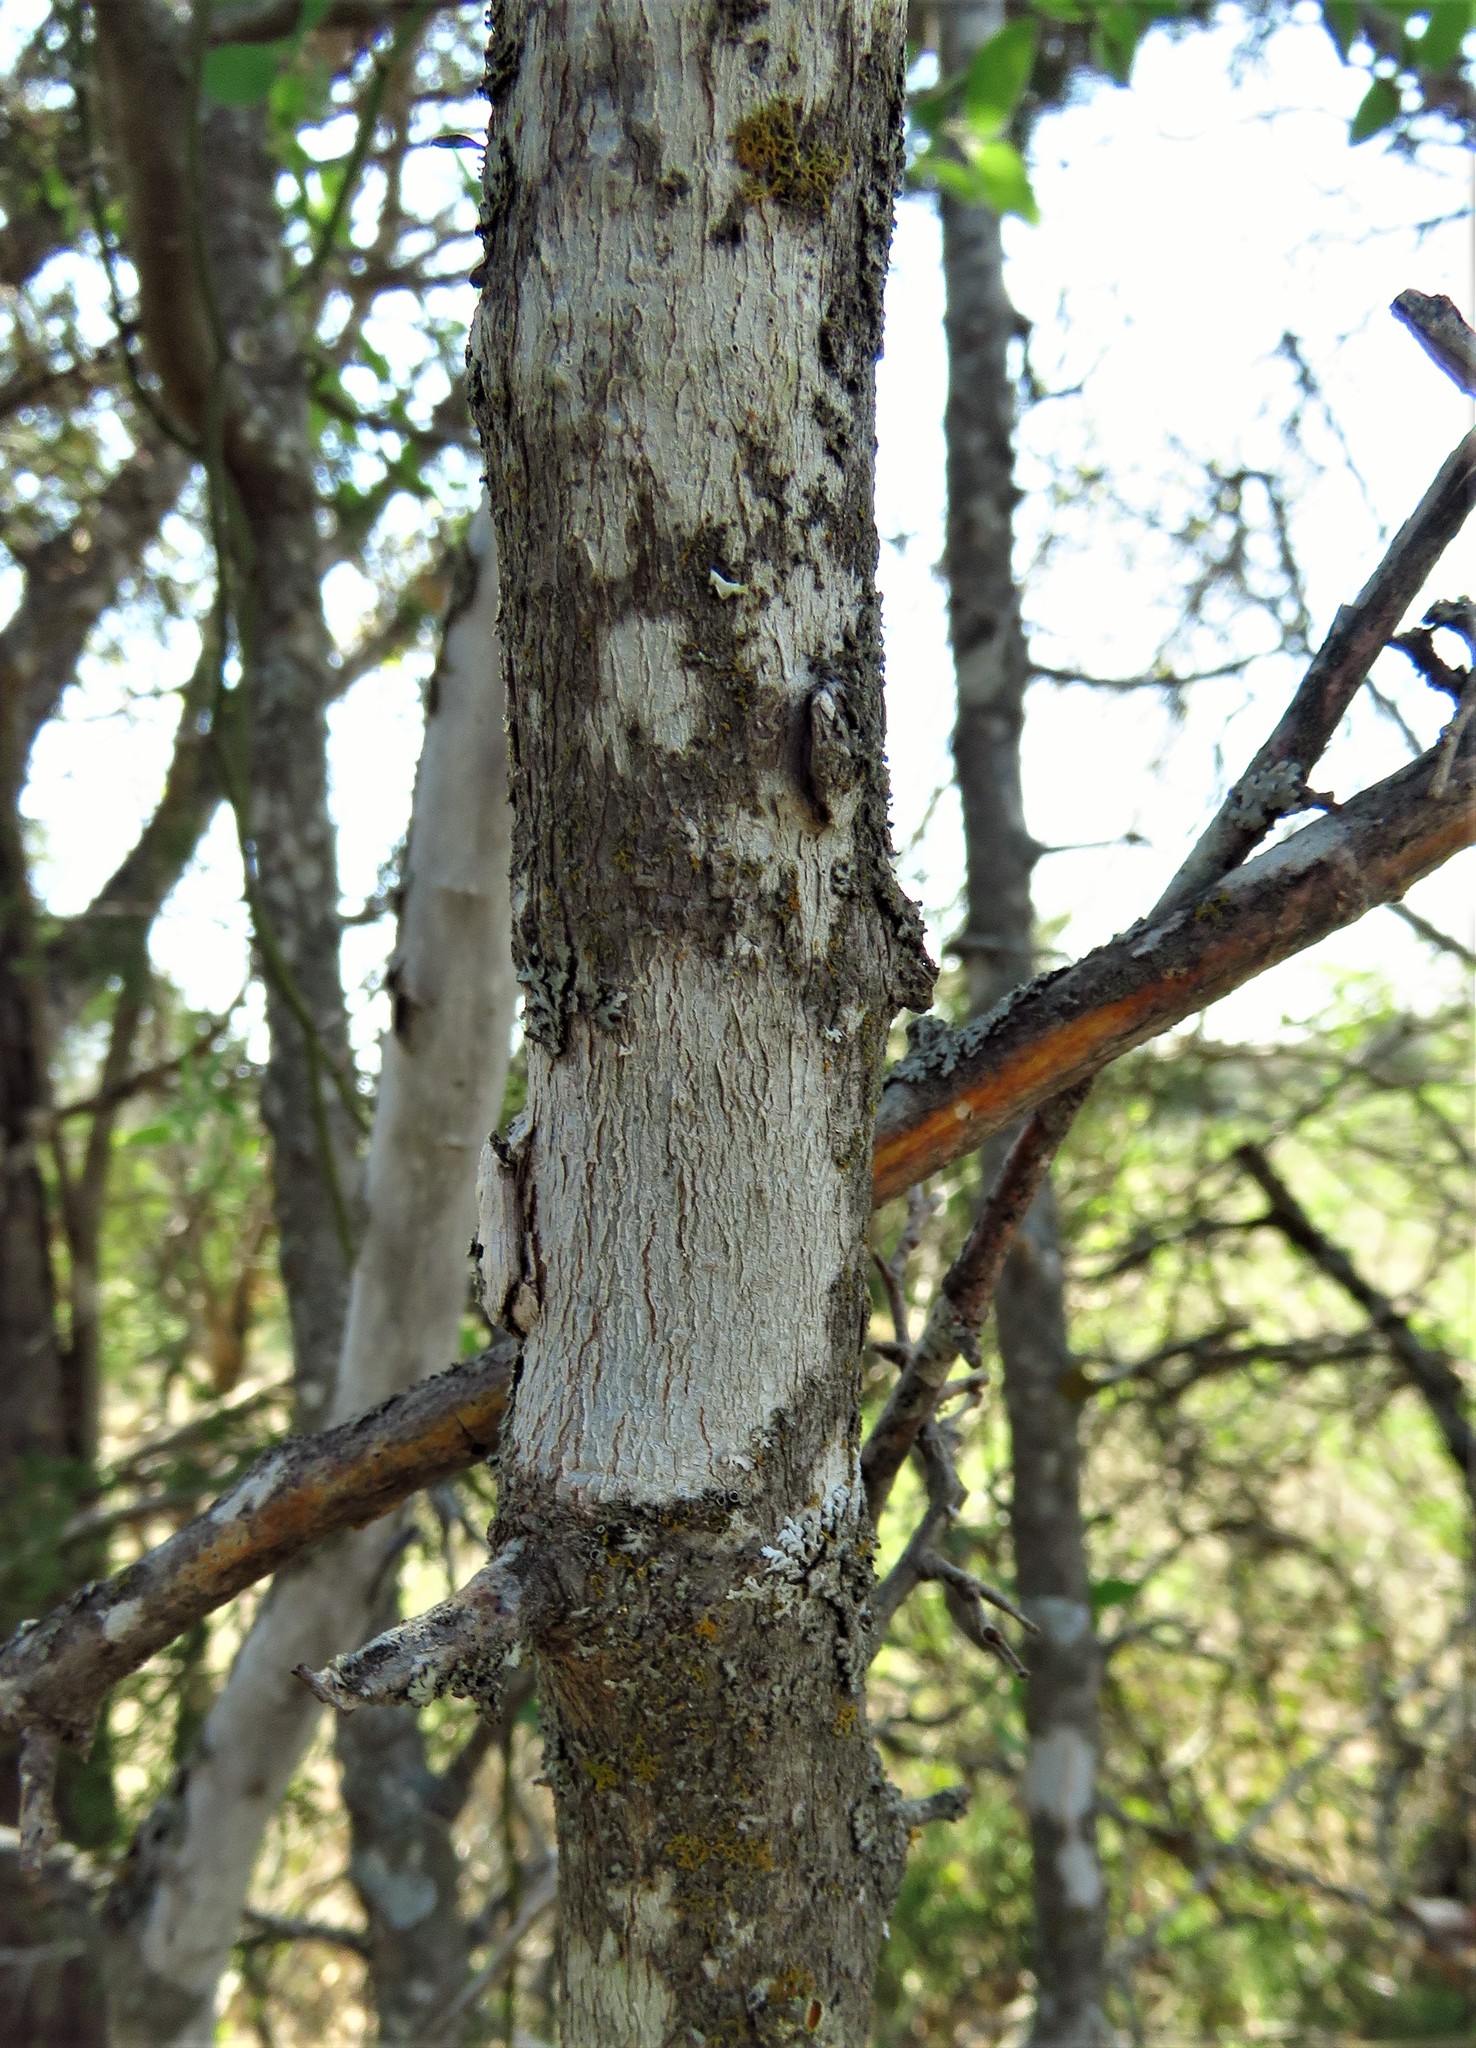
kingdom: Fungi
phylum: Ascomycota
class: Lecanoromycetes
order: Ostropales
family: Stictidaceae
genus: Robergea
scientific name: Robergea
